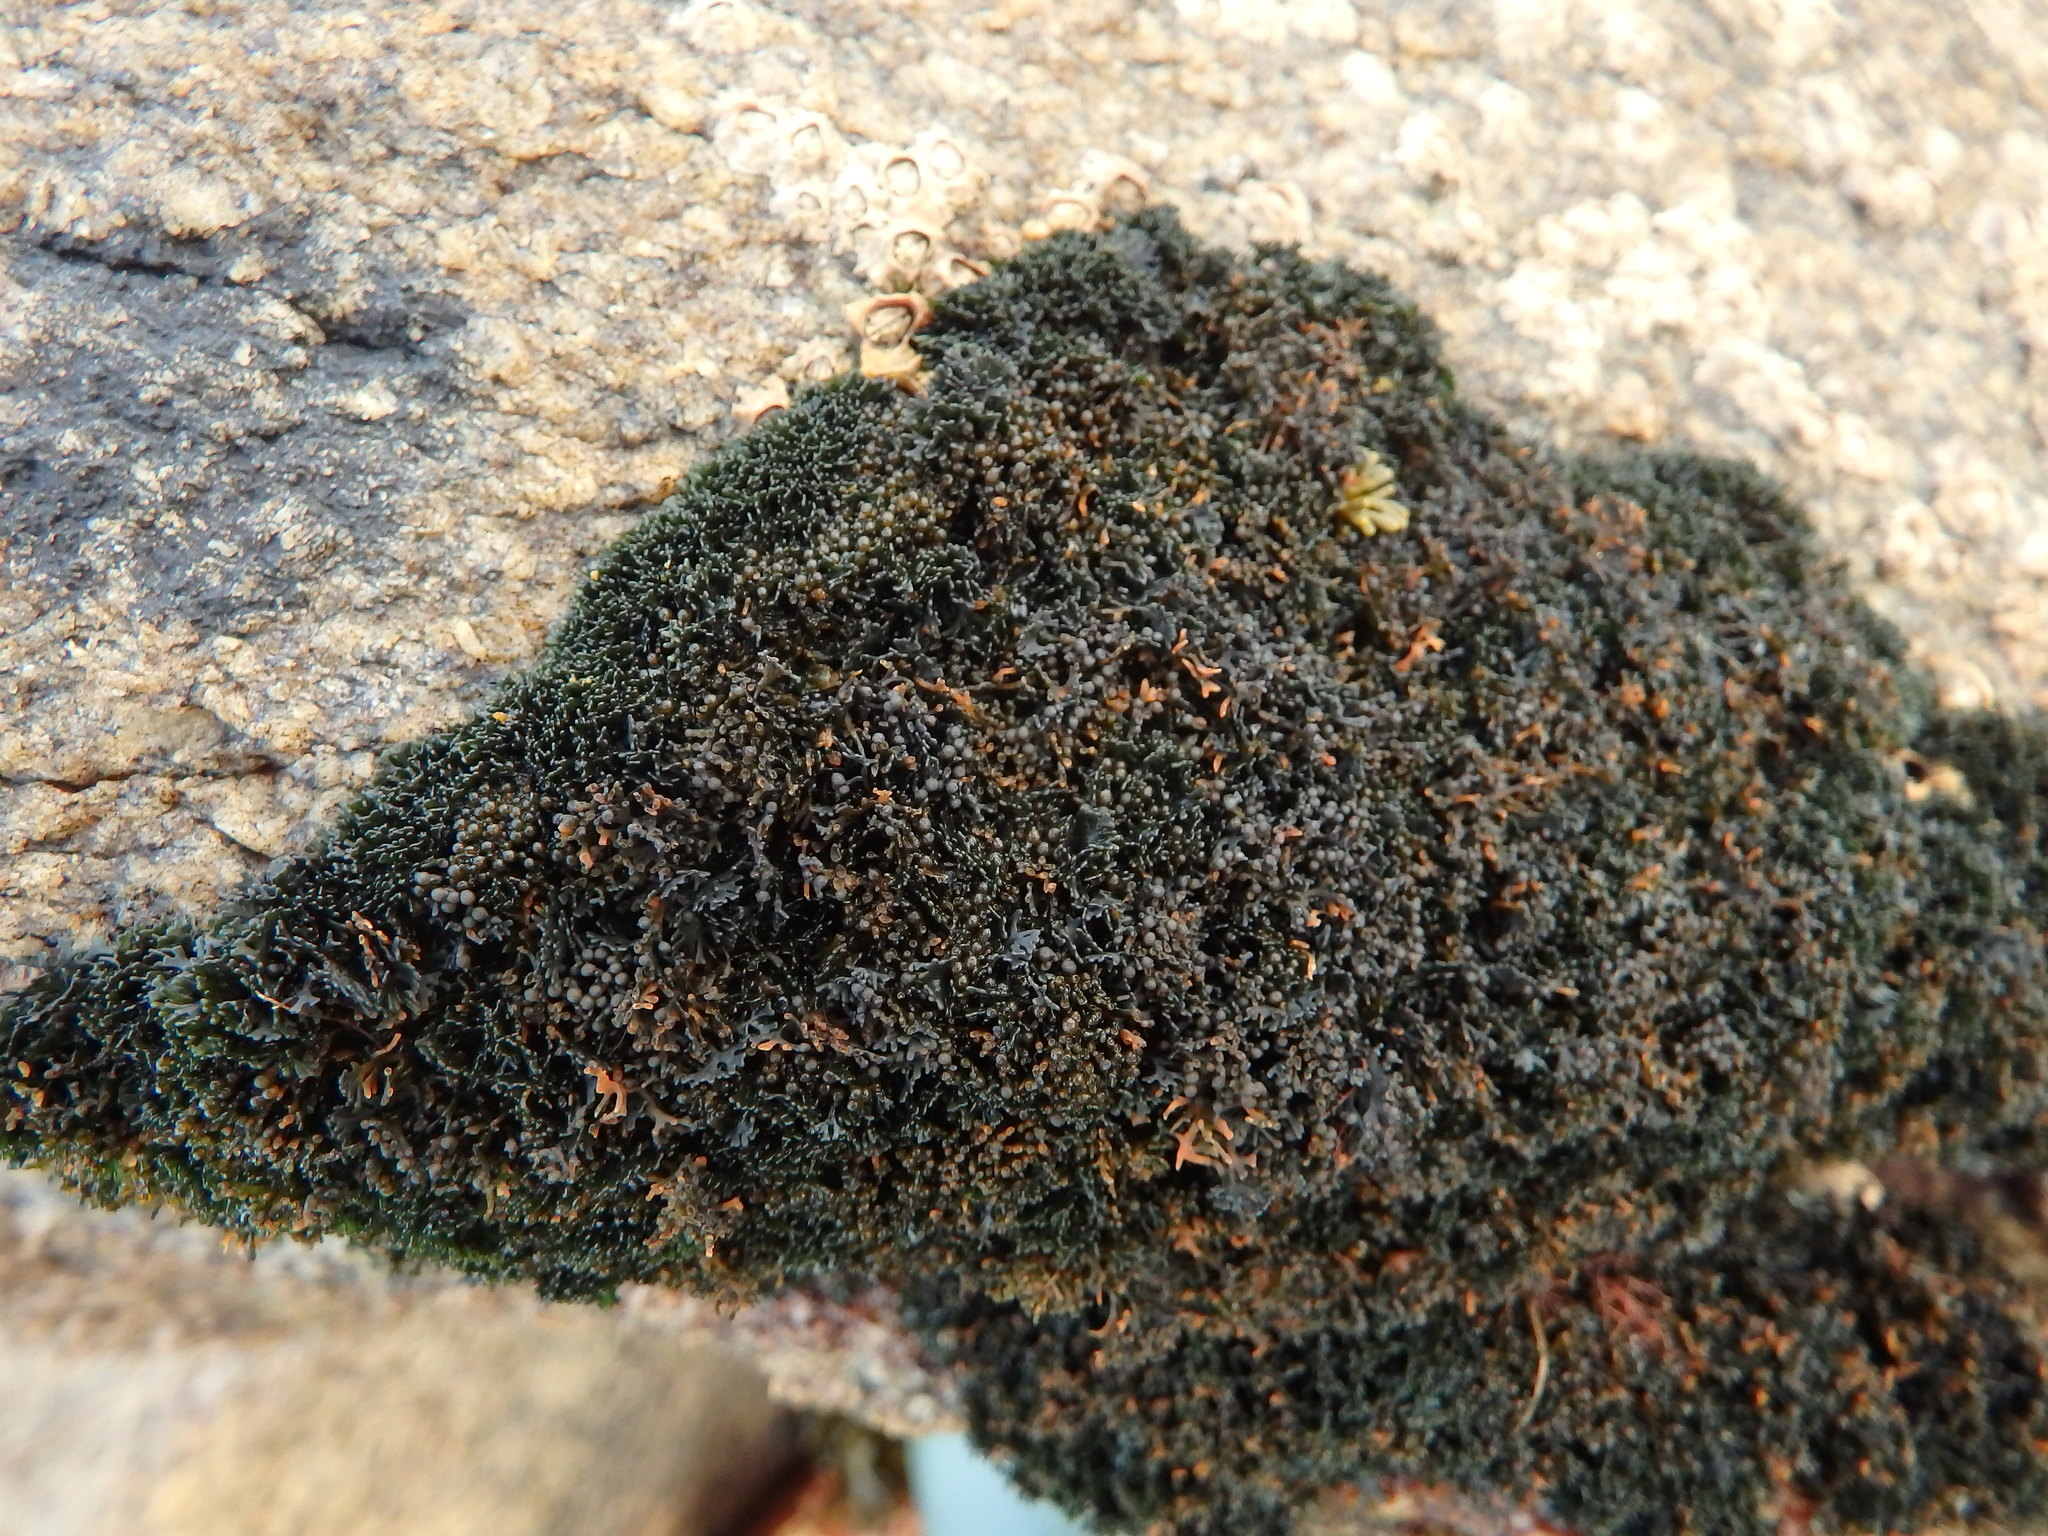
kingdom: Fungi
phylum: Ascomycota
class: Lichinomycetes
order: Lichinales
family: Lichinaceae
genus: Lichina
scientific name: Lichina pygmaea
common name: Black lichen
